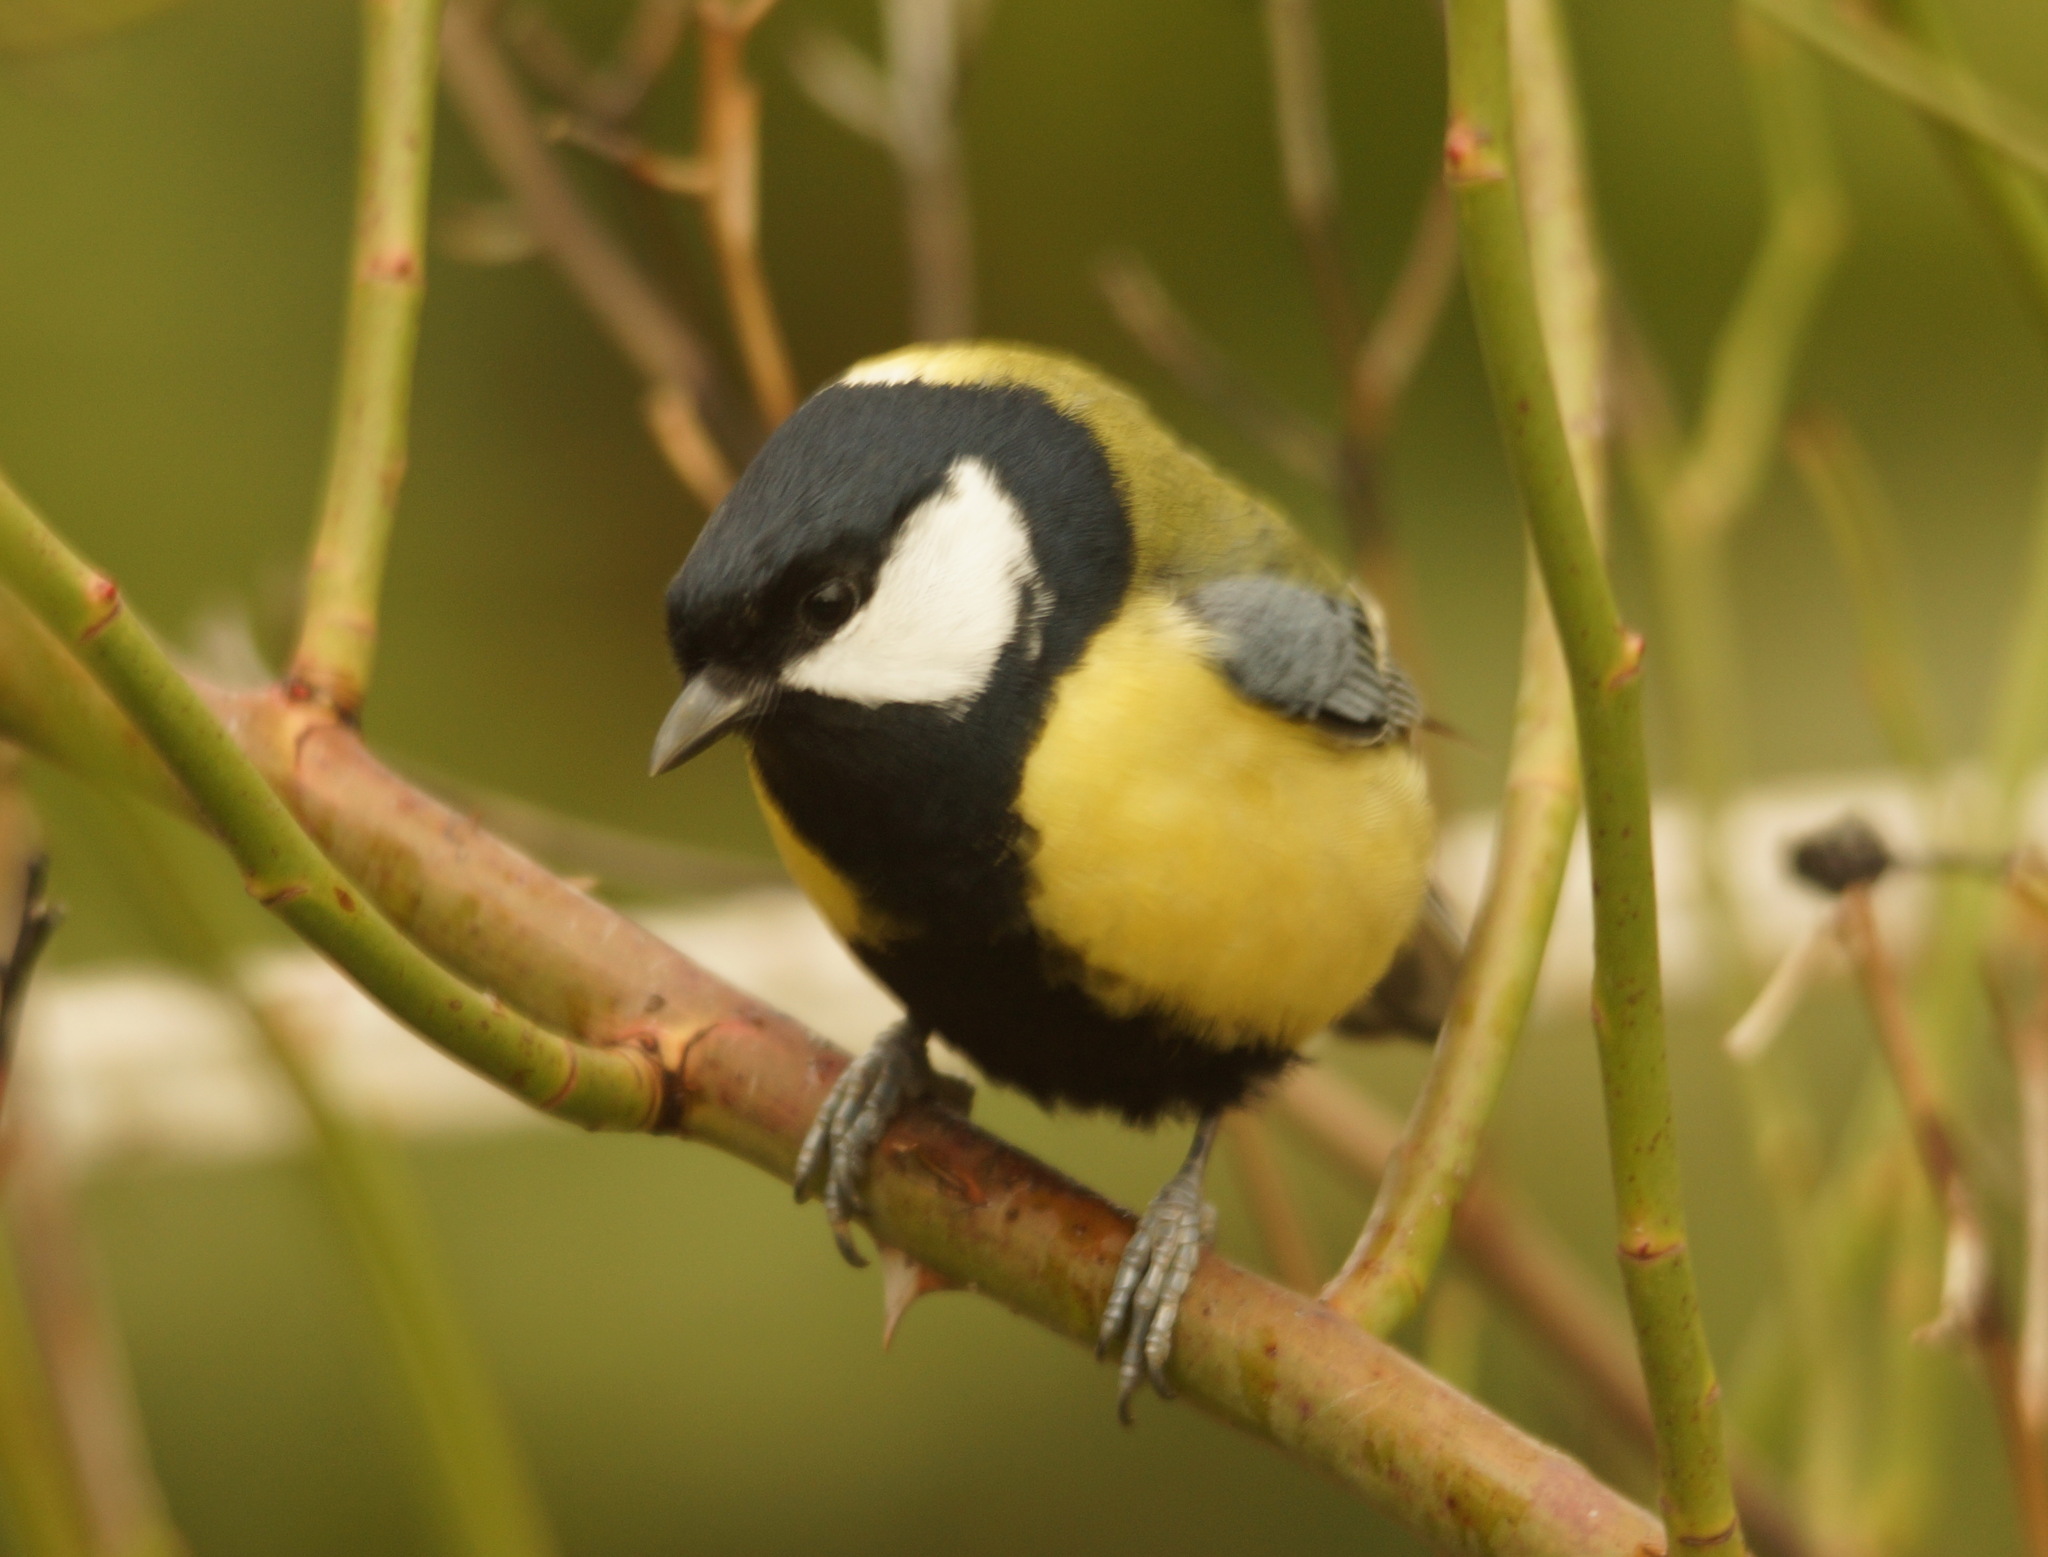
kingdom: Animalia
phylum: Chordata
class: Aves
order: Passeriformes
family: Paridae
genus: Parus
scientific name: Parus major
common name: Great tit
